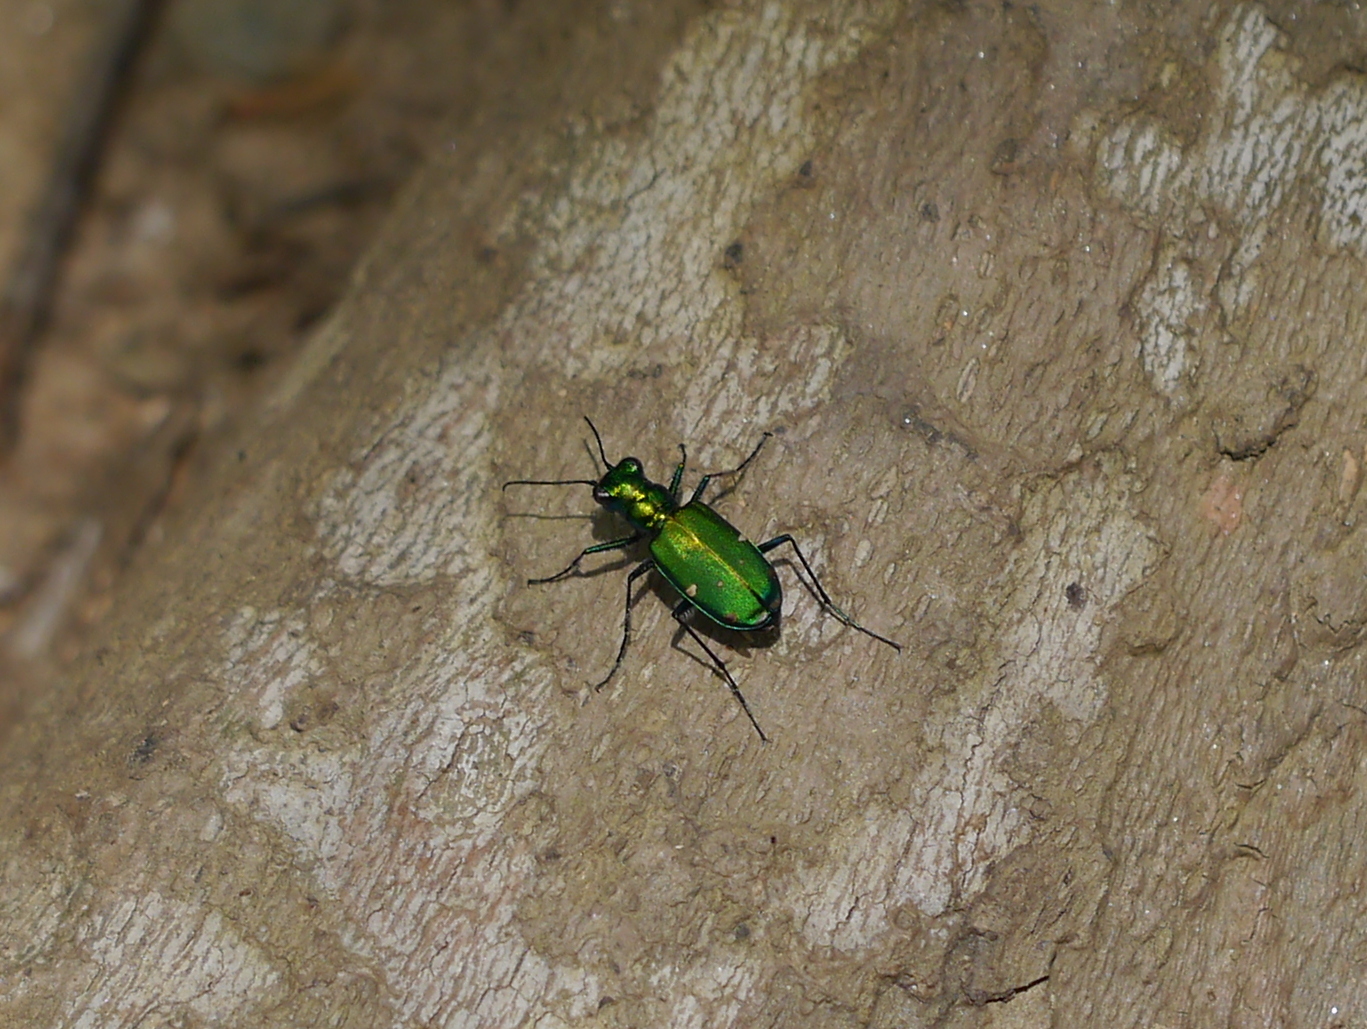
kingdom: Animalia
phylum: Arthropoda
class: Insecta
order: Coleoptera
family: Carabidae
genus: Cicindela
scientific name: Cicindela sexguttata
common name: Six-spotted tiger beetle
